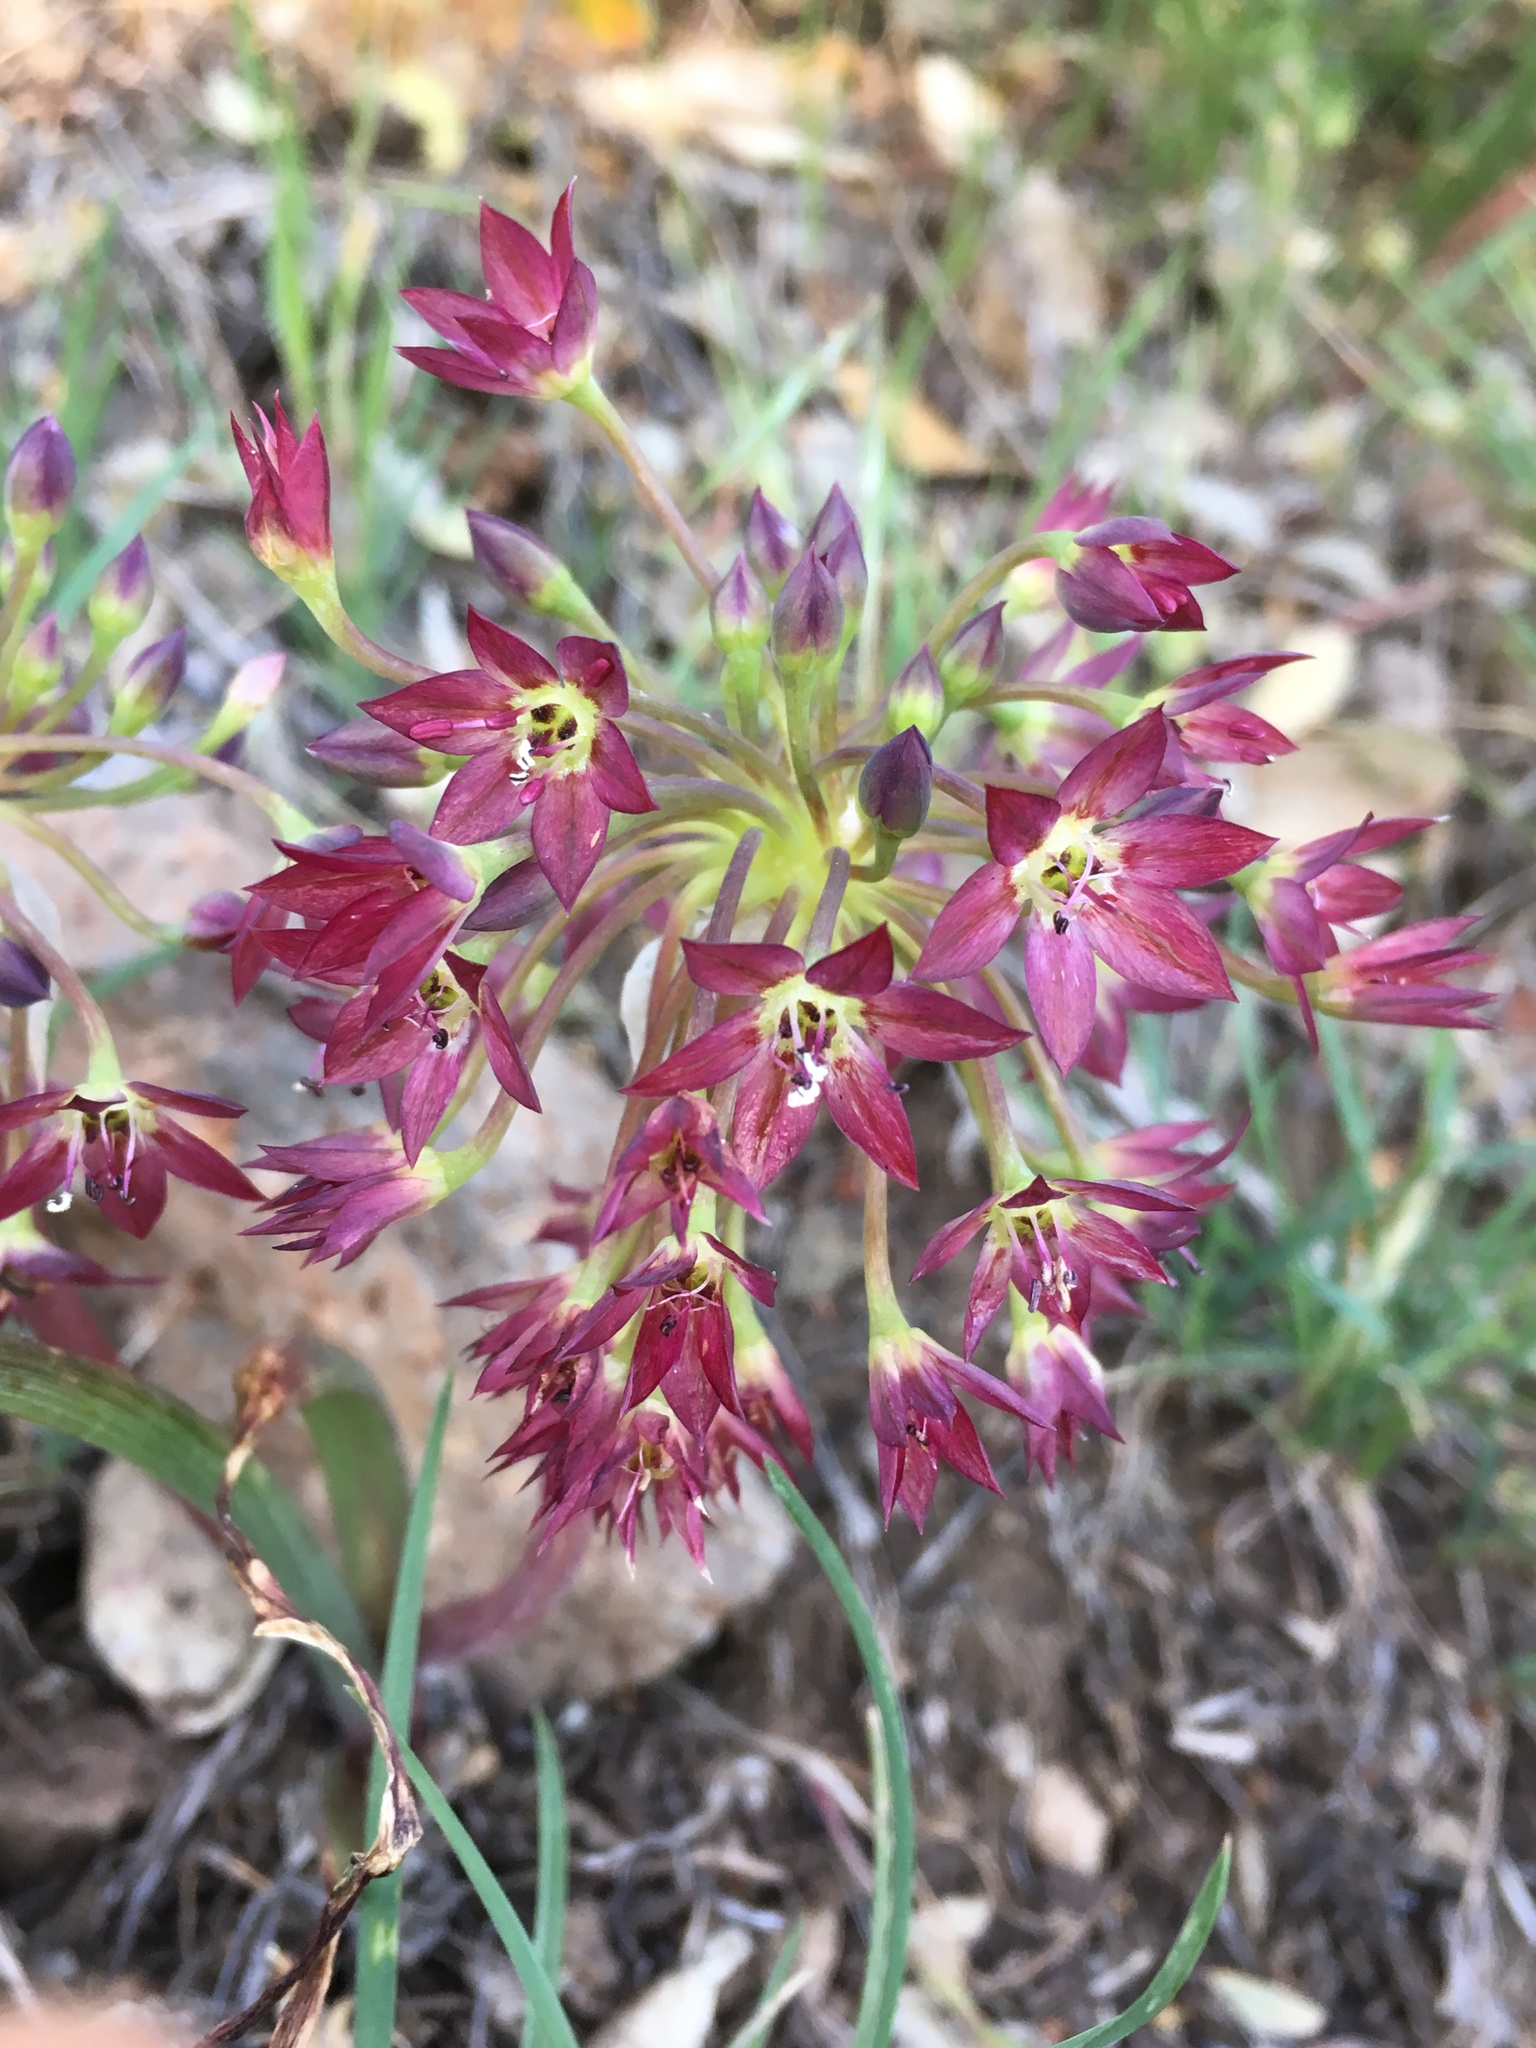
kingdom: Plantae
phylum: Tracheophyta
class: Liliopsida
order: Asparagales
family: Amaryllidaceae
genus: Allium
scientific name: Allium campanulatum
